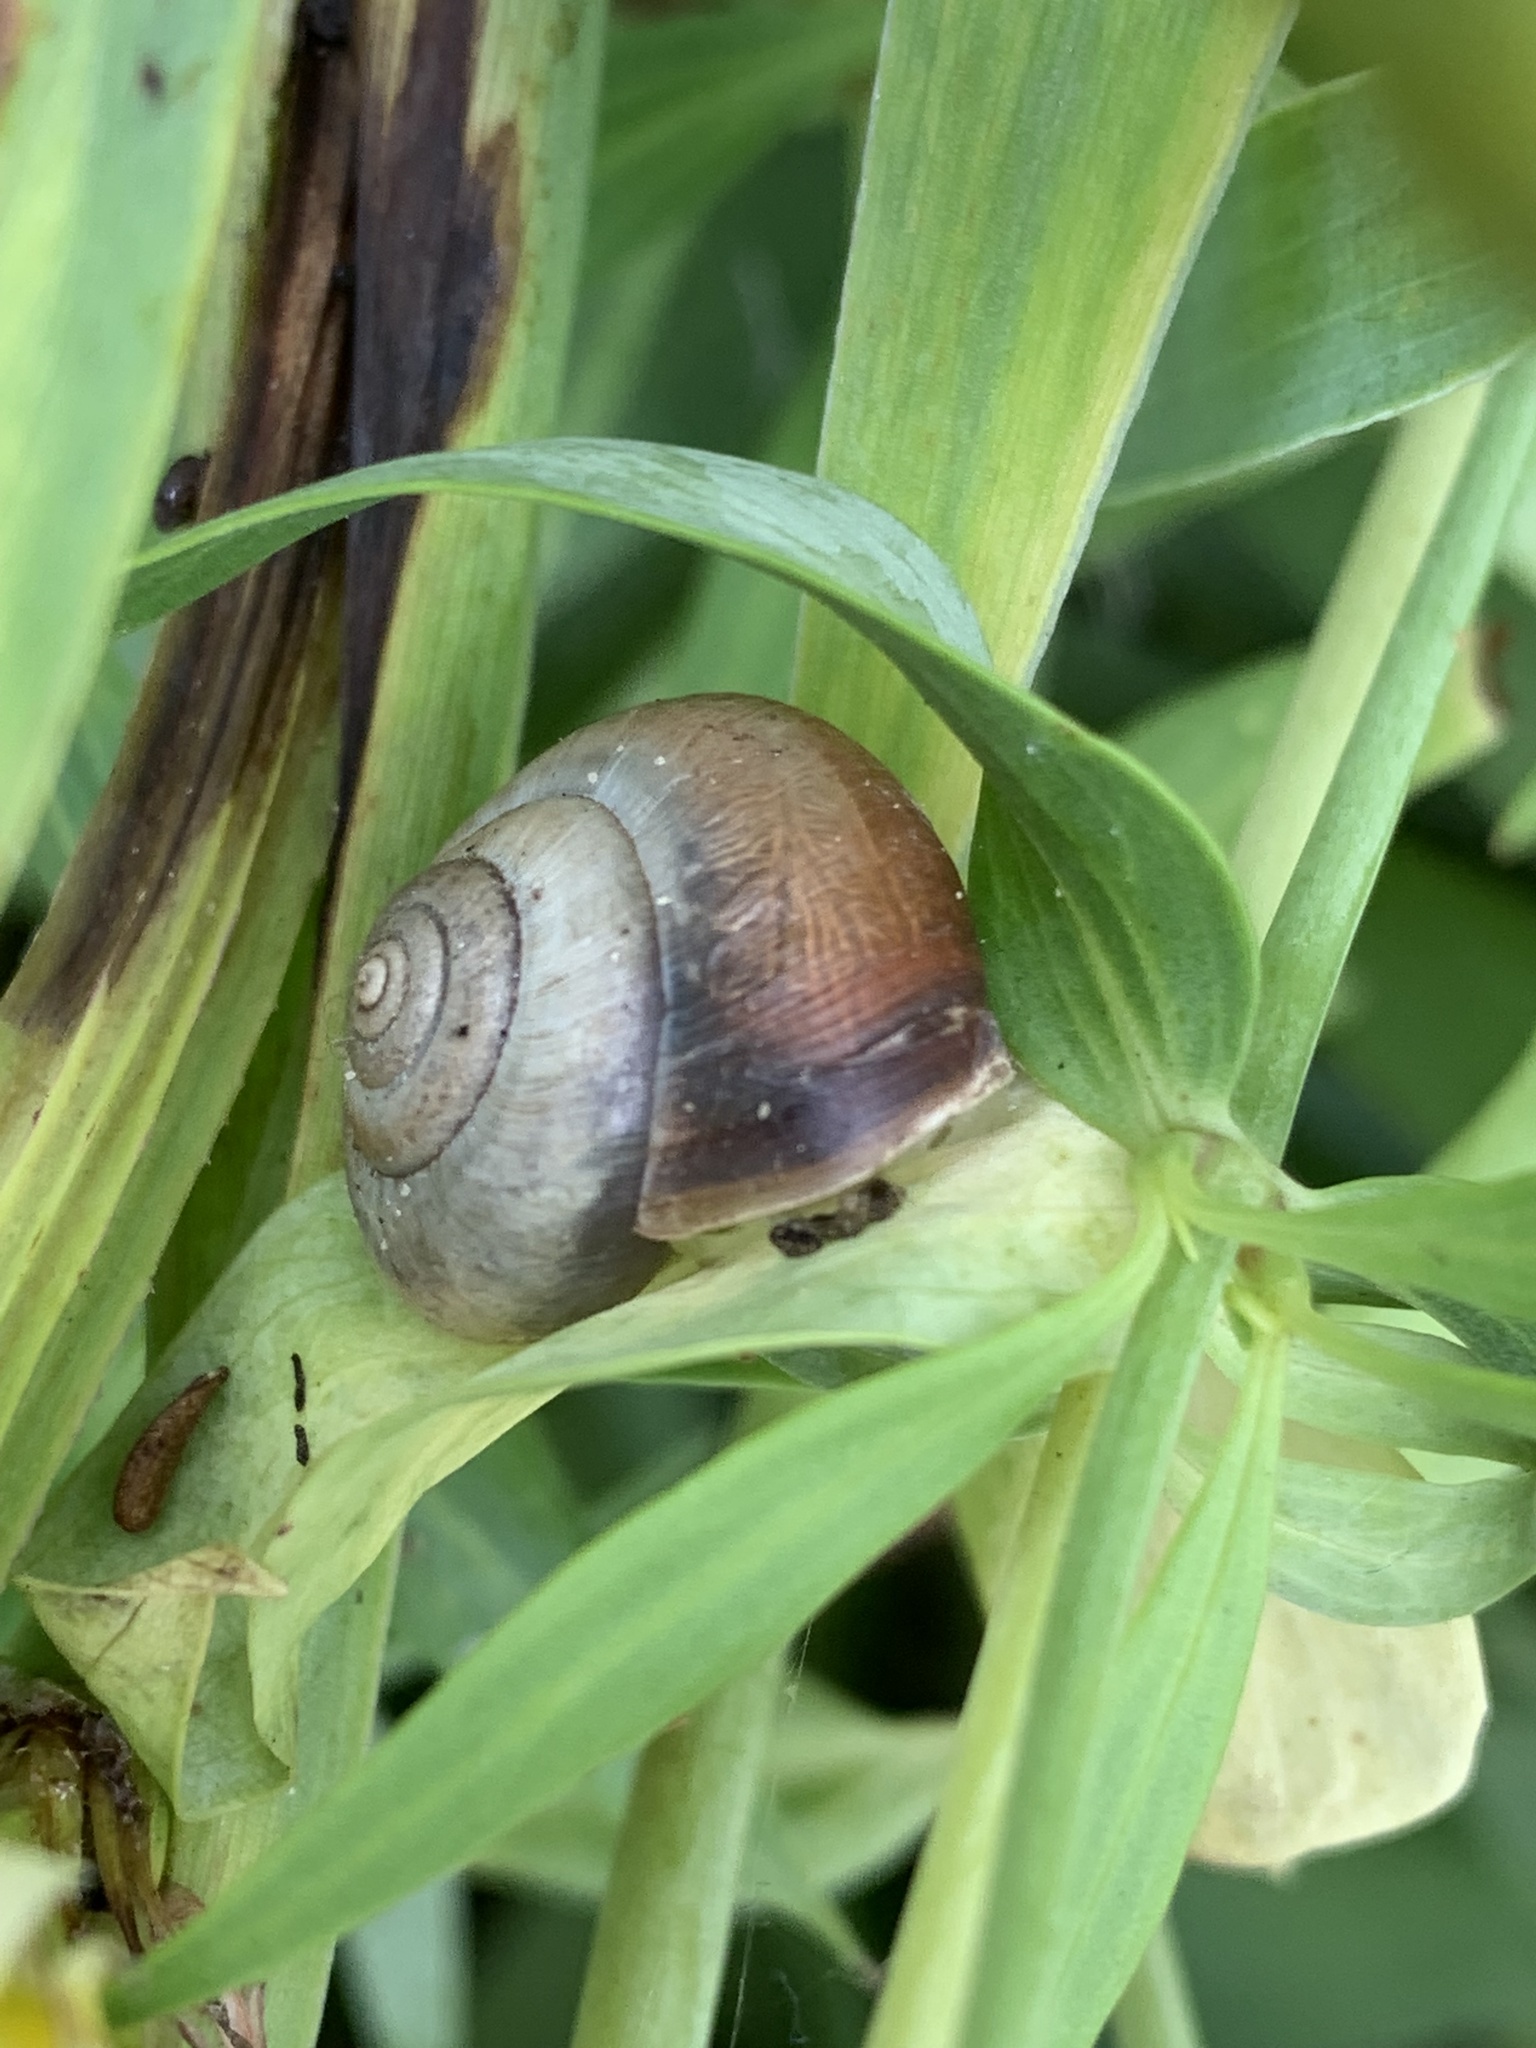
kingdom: Animalia
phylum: Mollusca
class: Gastropoda
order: Stylommatophora
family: Hygromiidae
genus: Monacha
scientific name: Monacha cantiana
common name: Kentish snail
